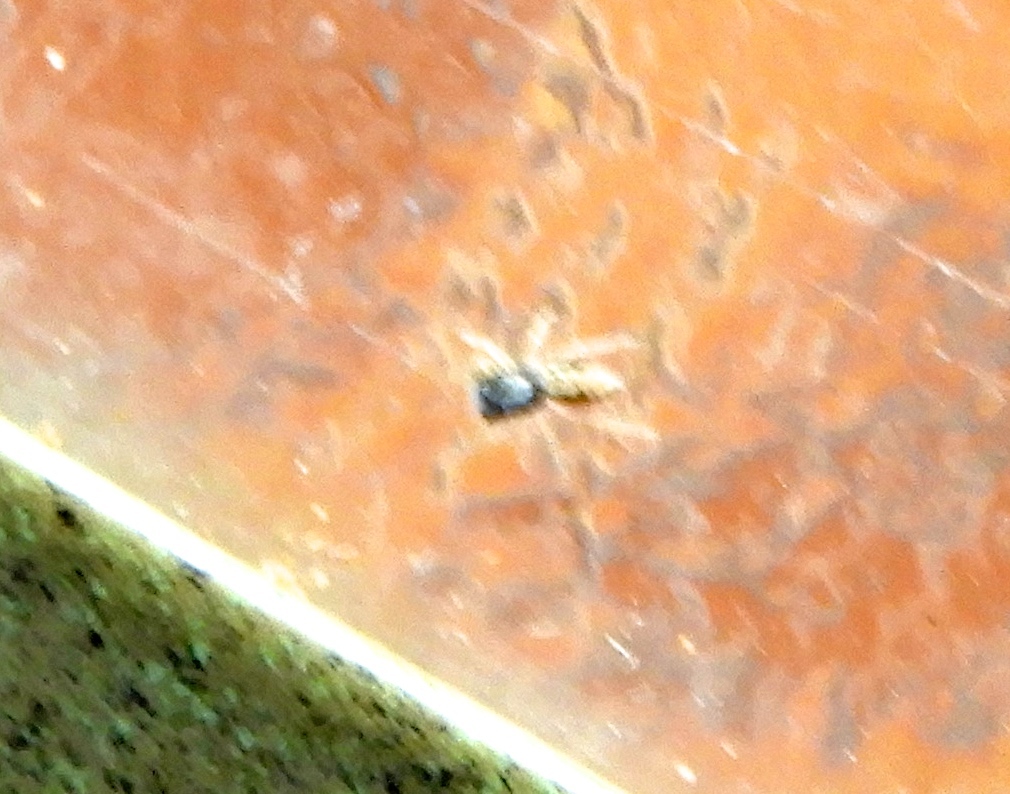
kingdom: Animalia
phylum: Arthropoda
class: Arachnida
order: Araneae
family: Salticidae
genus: Menemerus
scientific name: Menemerus bivittatus
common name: Gray wall jumper
